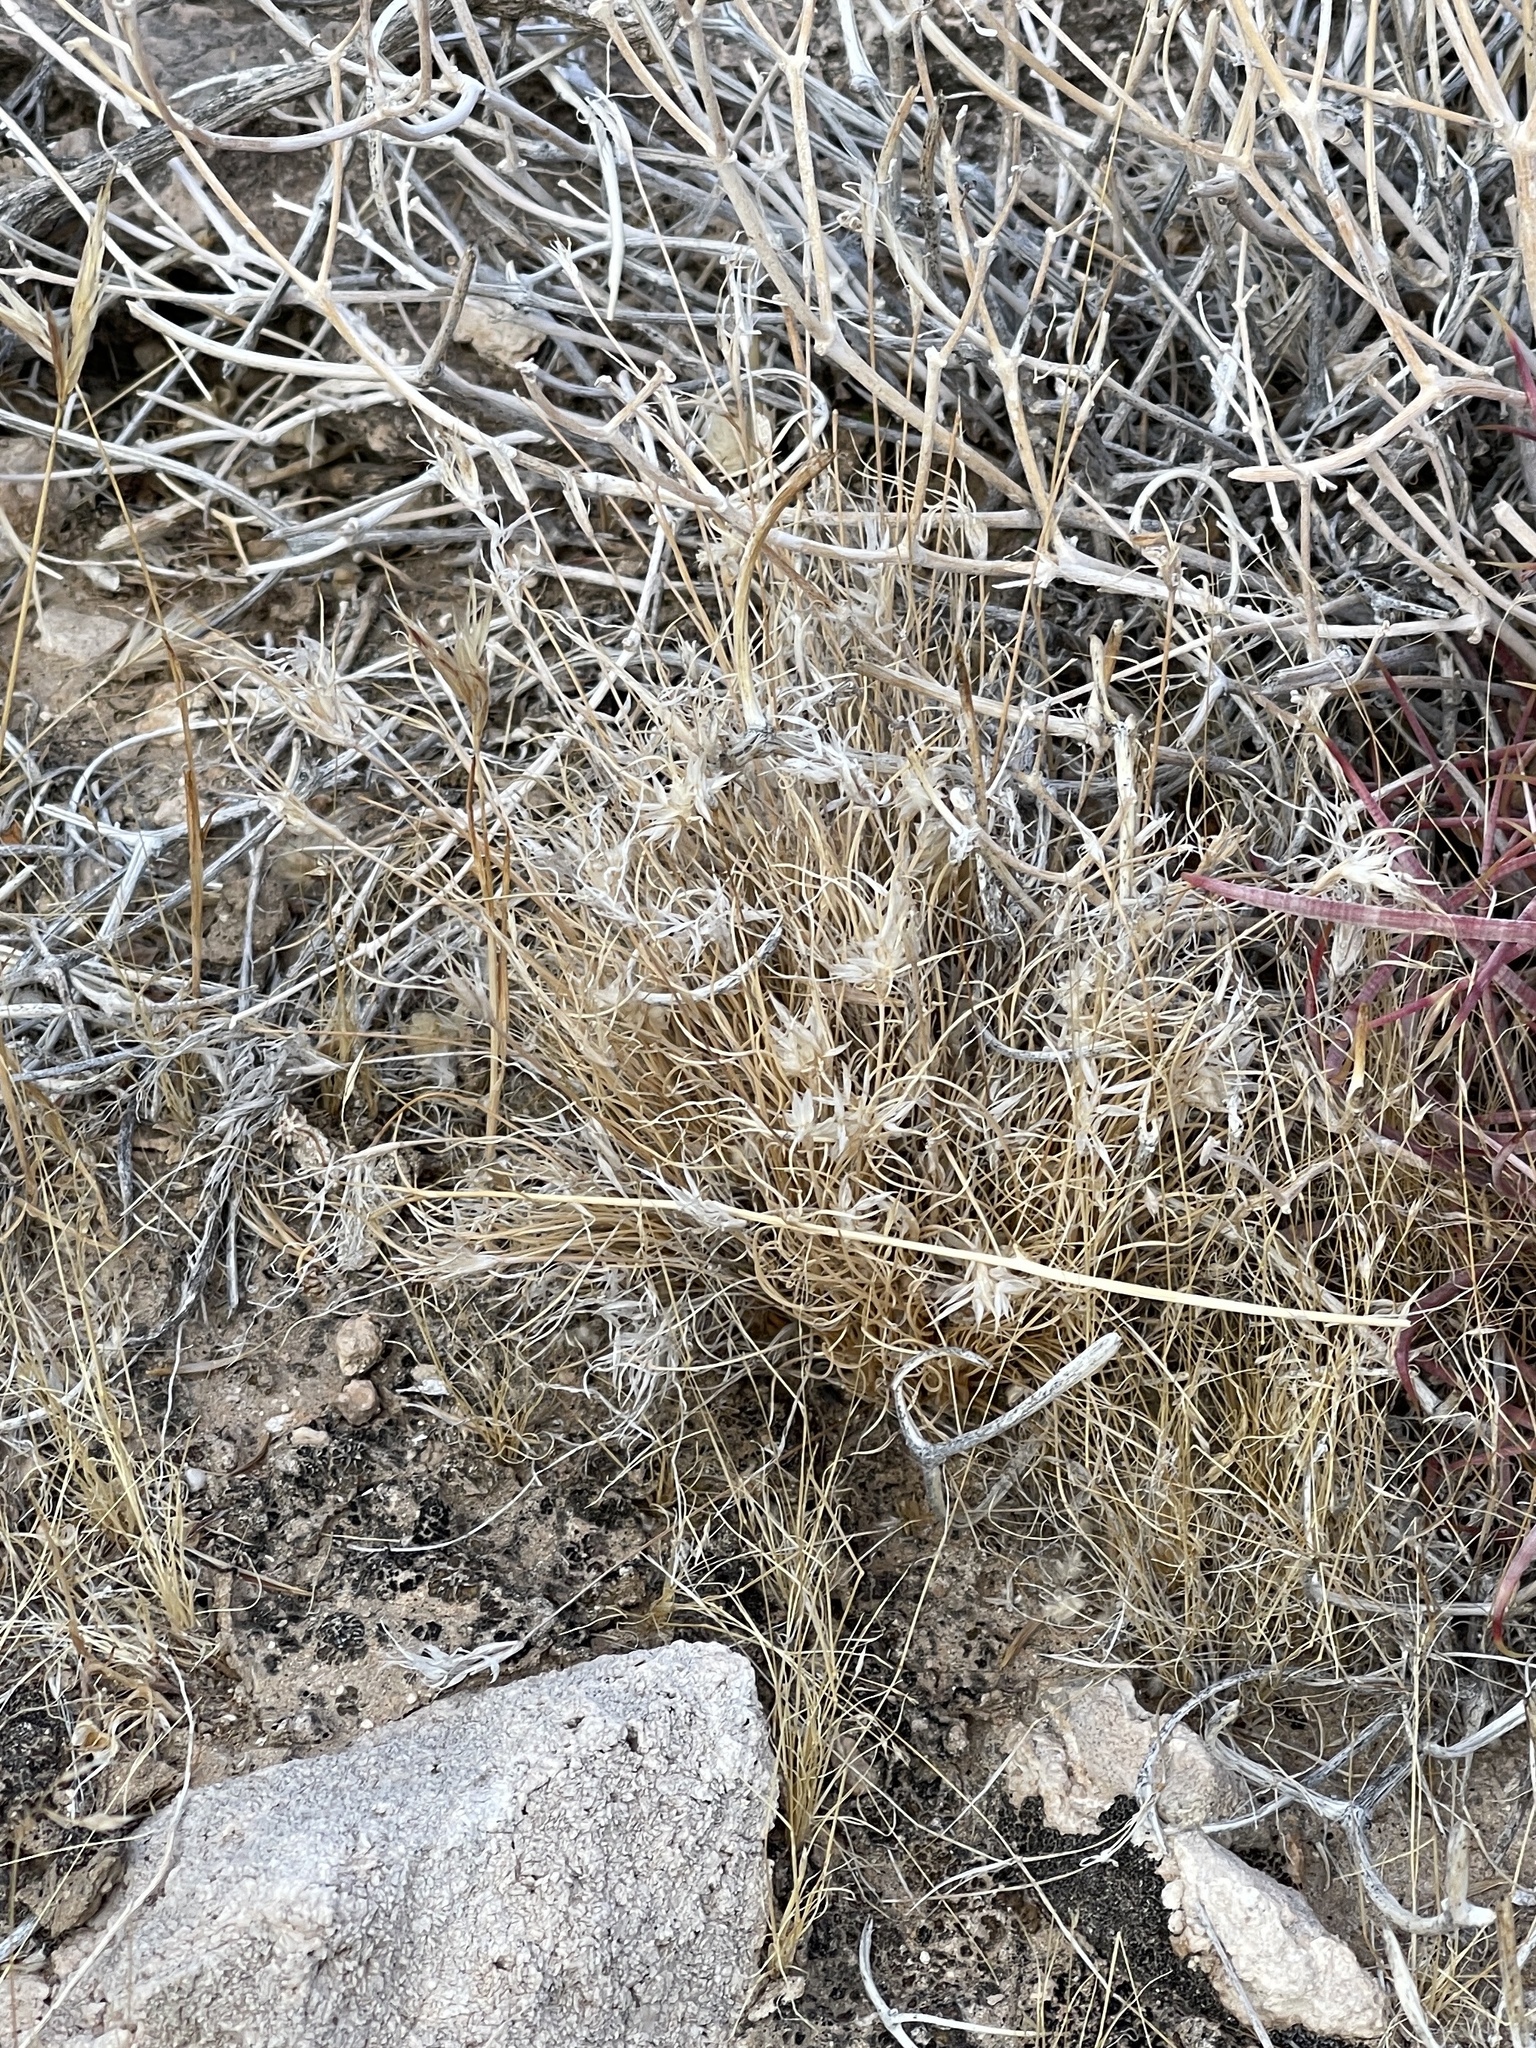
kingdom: Plantae
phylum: Tracheophyta
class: Liliopsida
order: Poales
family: Poaceae
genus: Dasyochloa
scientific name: Dasyochloa pulchella
